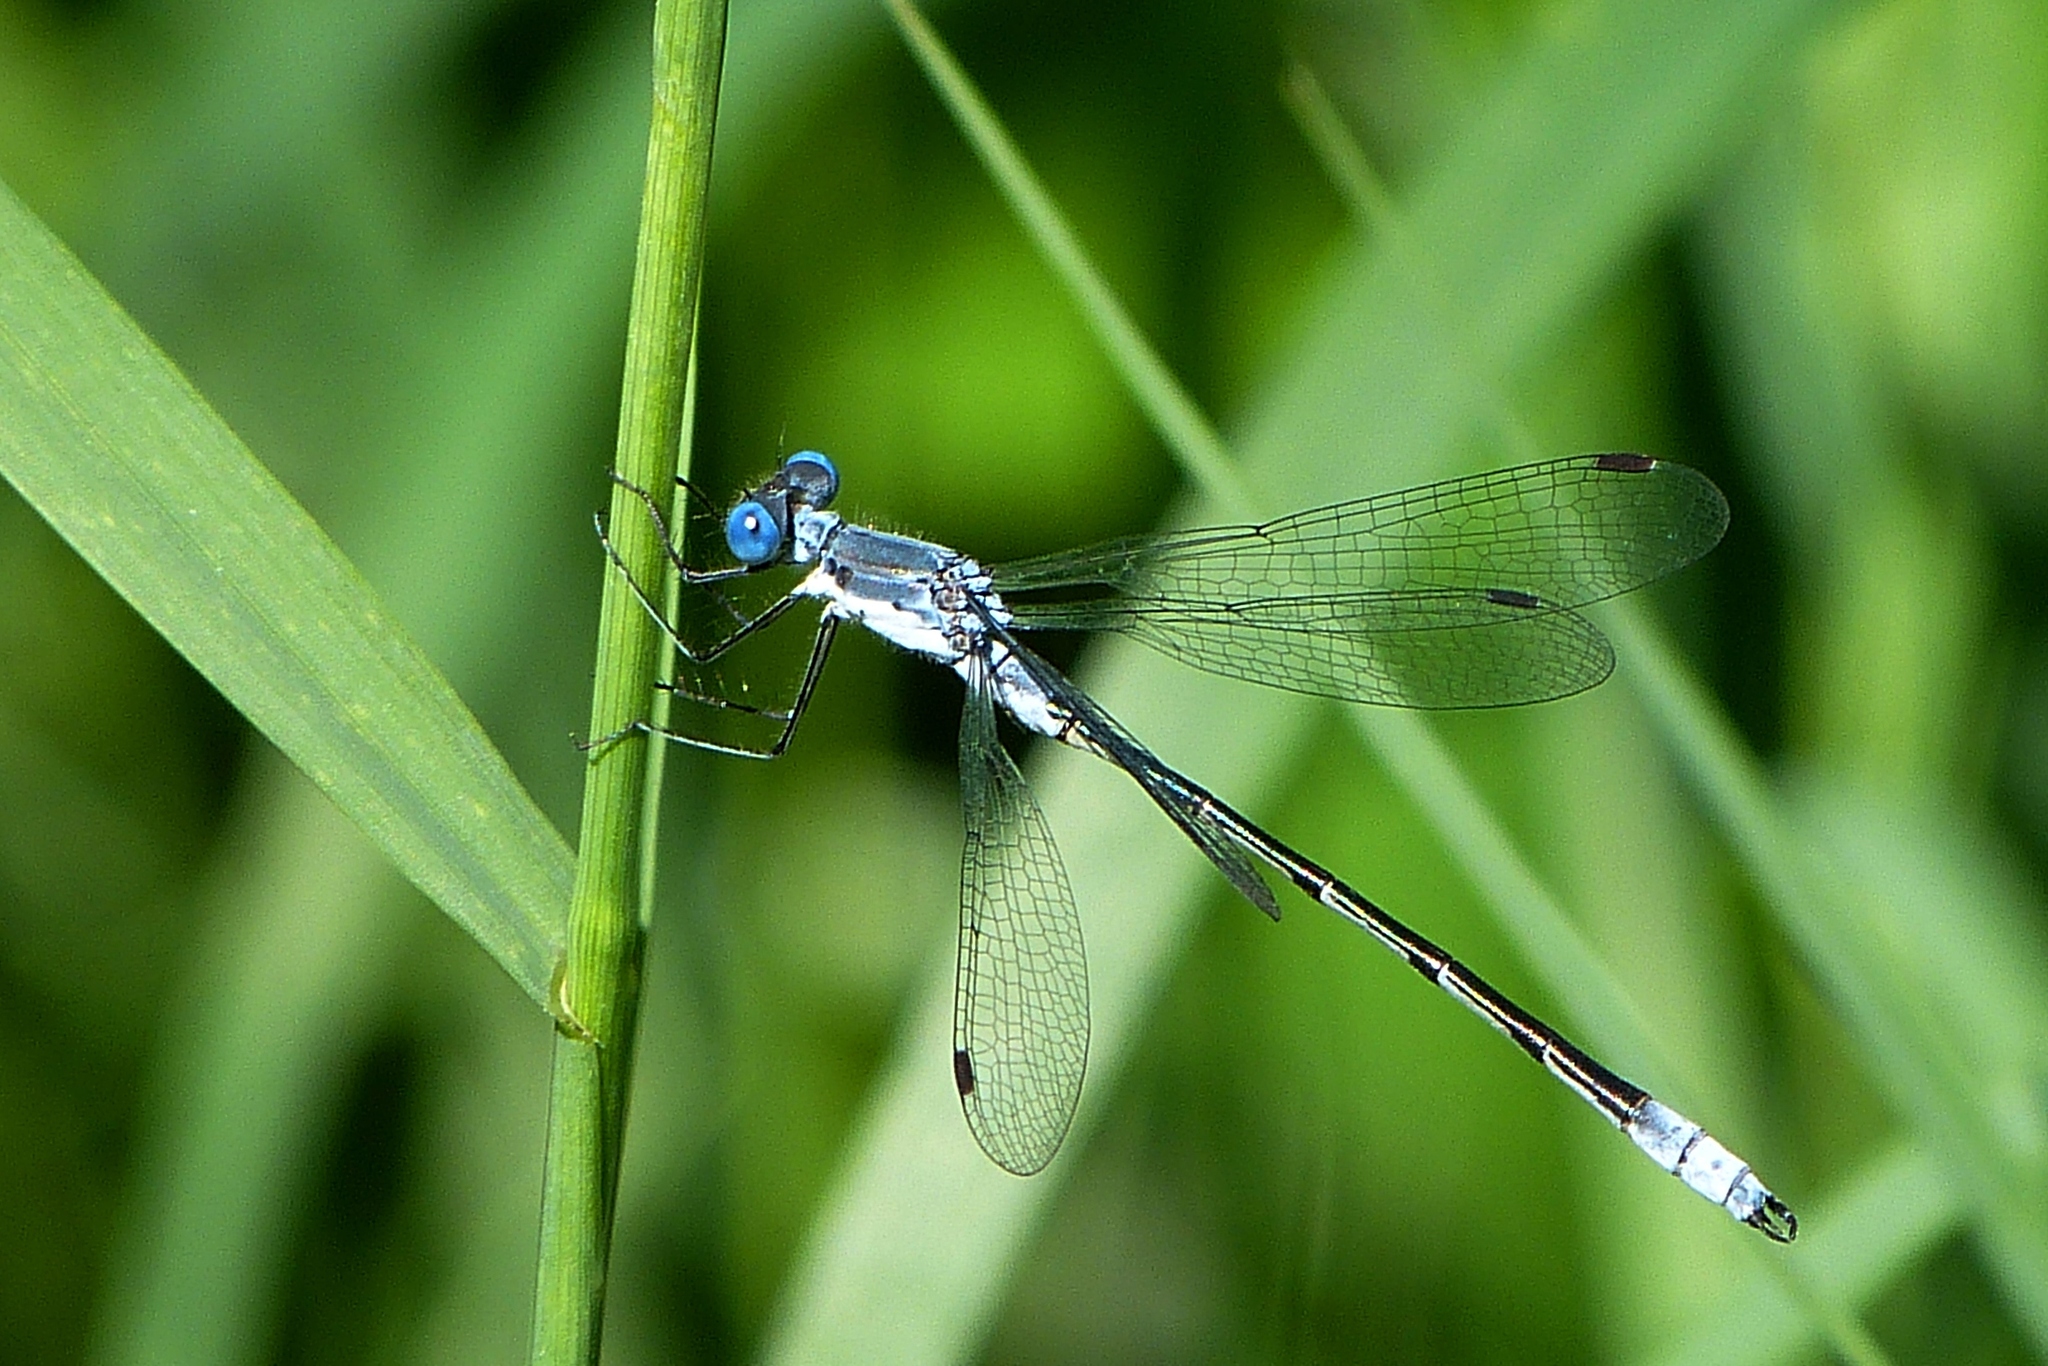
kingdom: Animalia
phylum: Arthropoda
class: Insecta
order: Odonata
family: Lestidae
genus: Lestes
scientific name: Lestes forcipatus
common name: Sweetflag spreadwing
